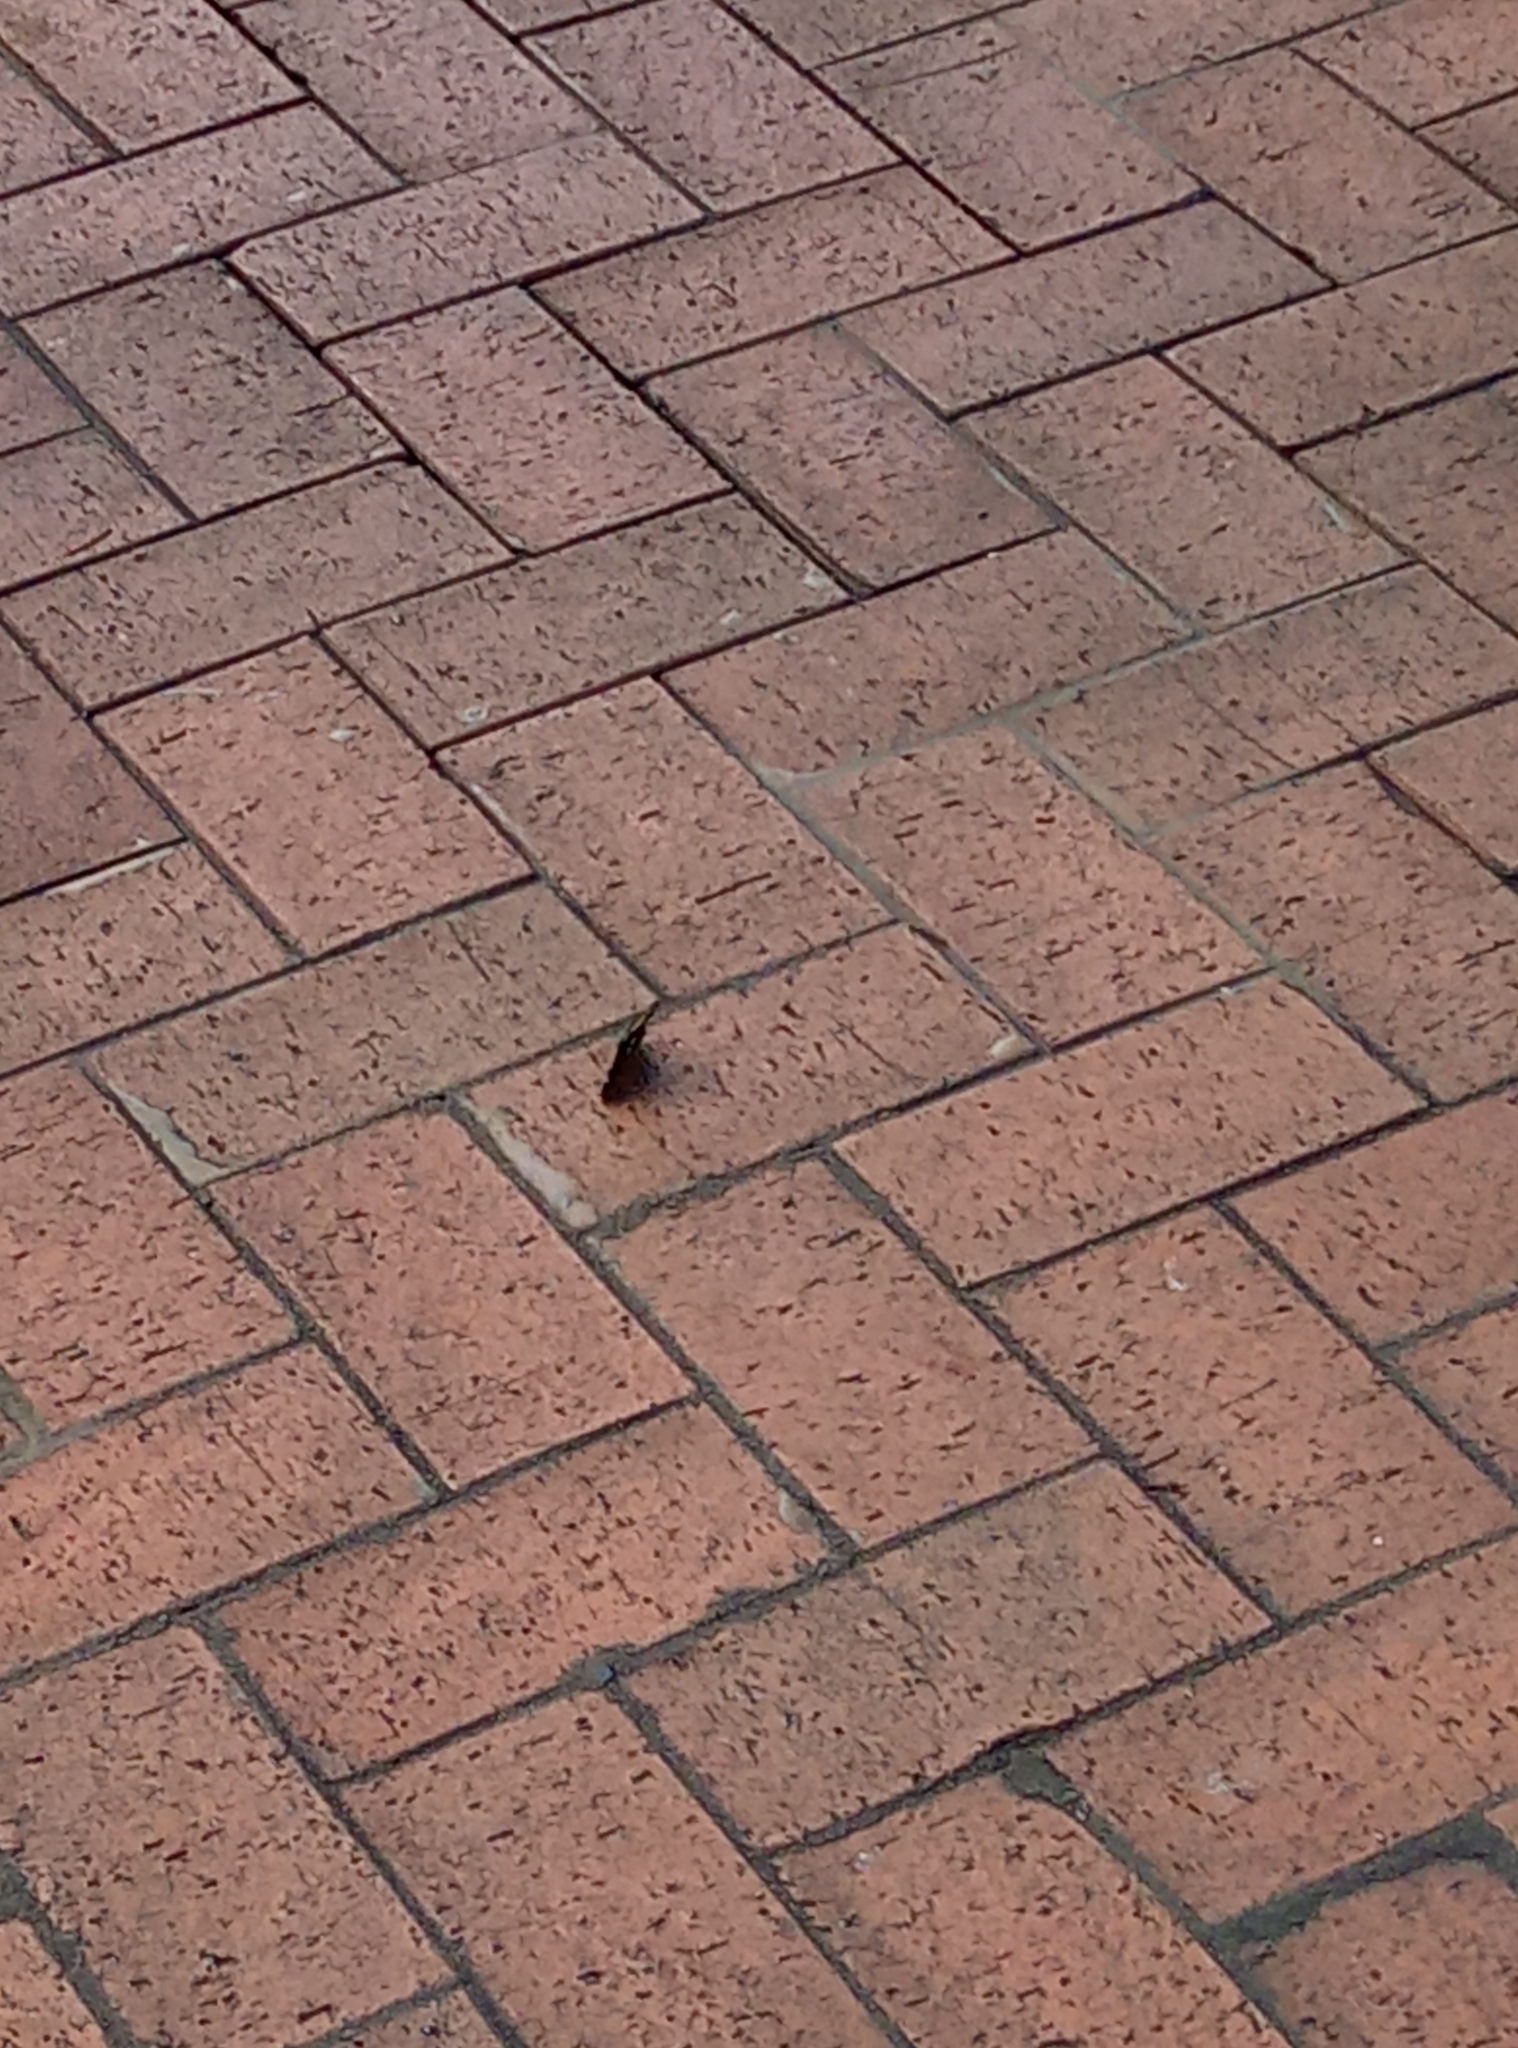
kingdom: Fungi
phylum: Ascomycota
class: Sordariomycetes
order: Microascales
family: Microascaceae
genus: Graphium
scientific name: Graphium sarpedon
